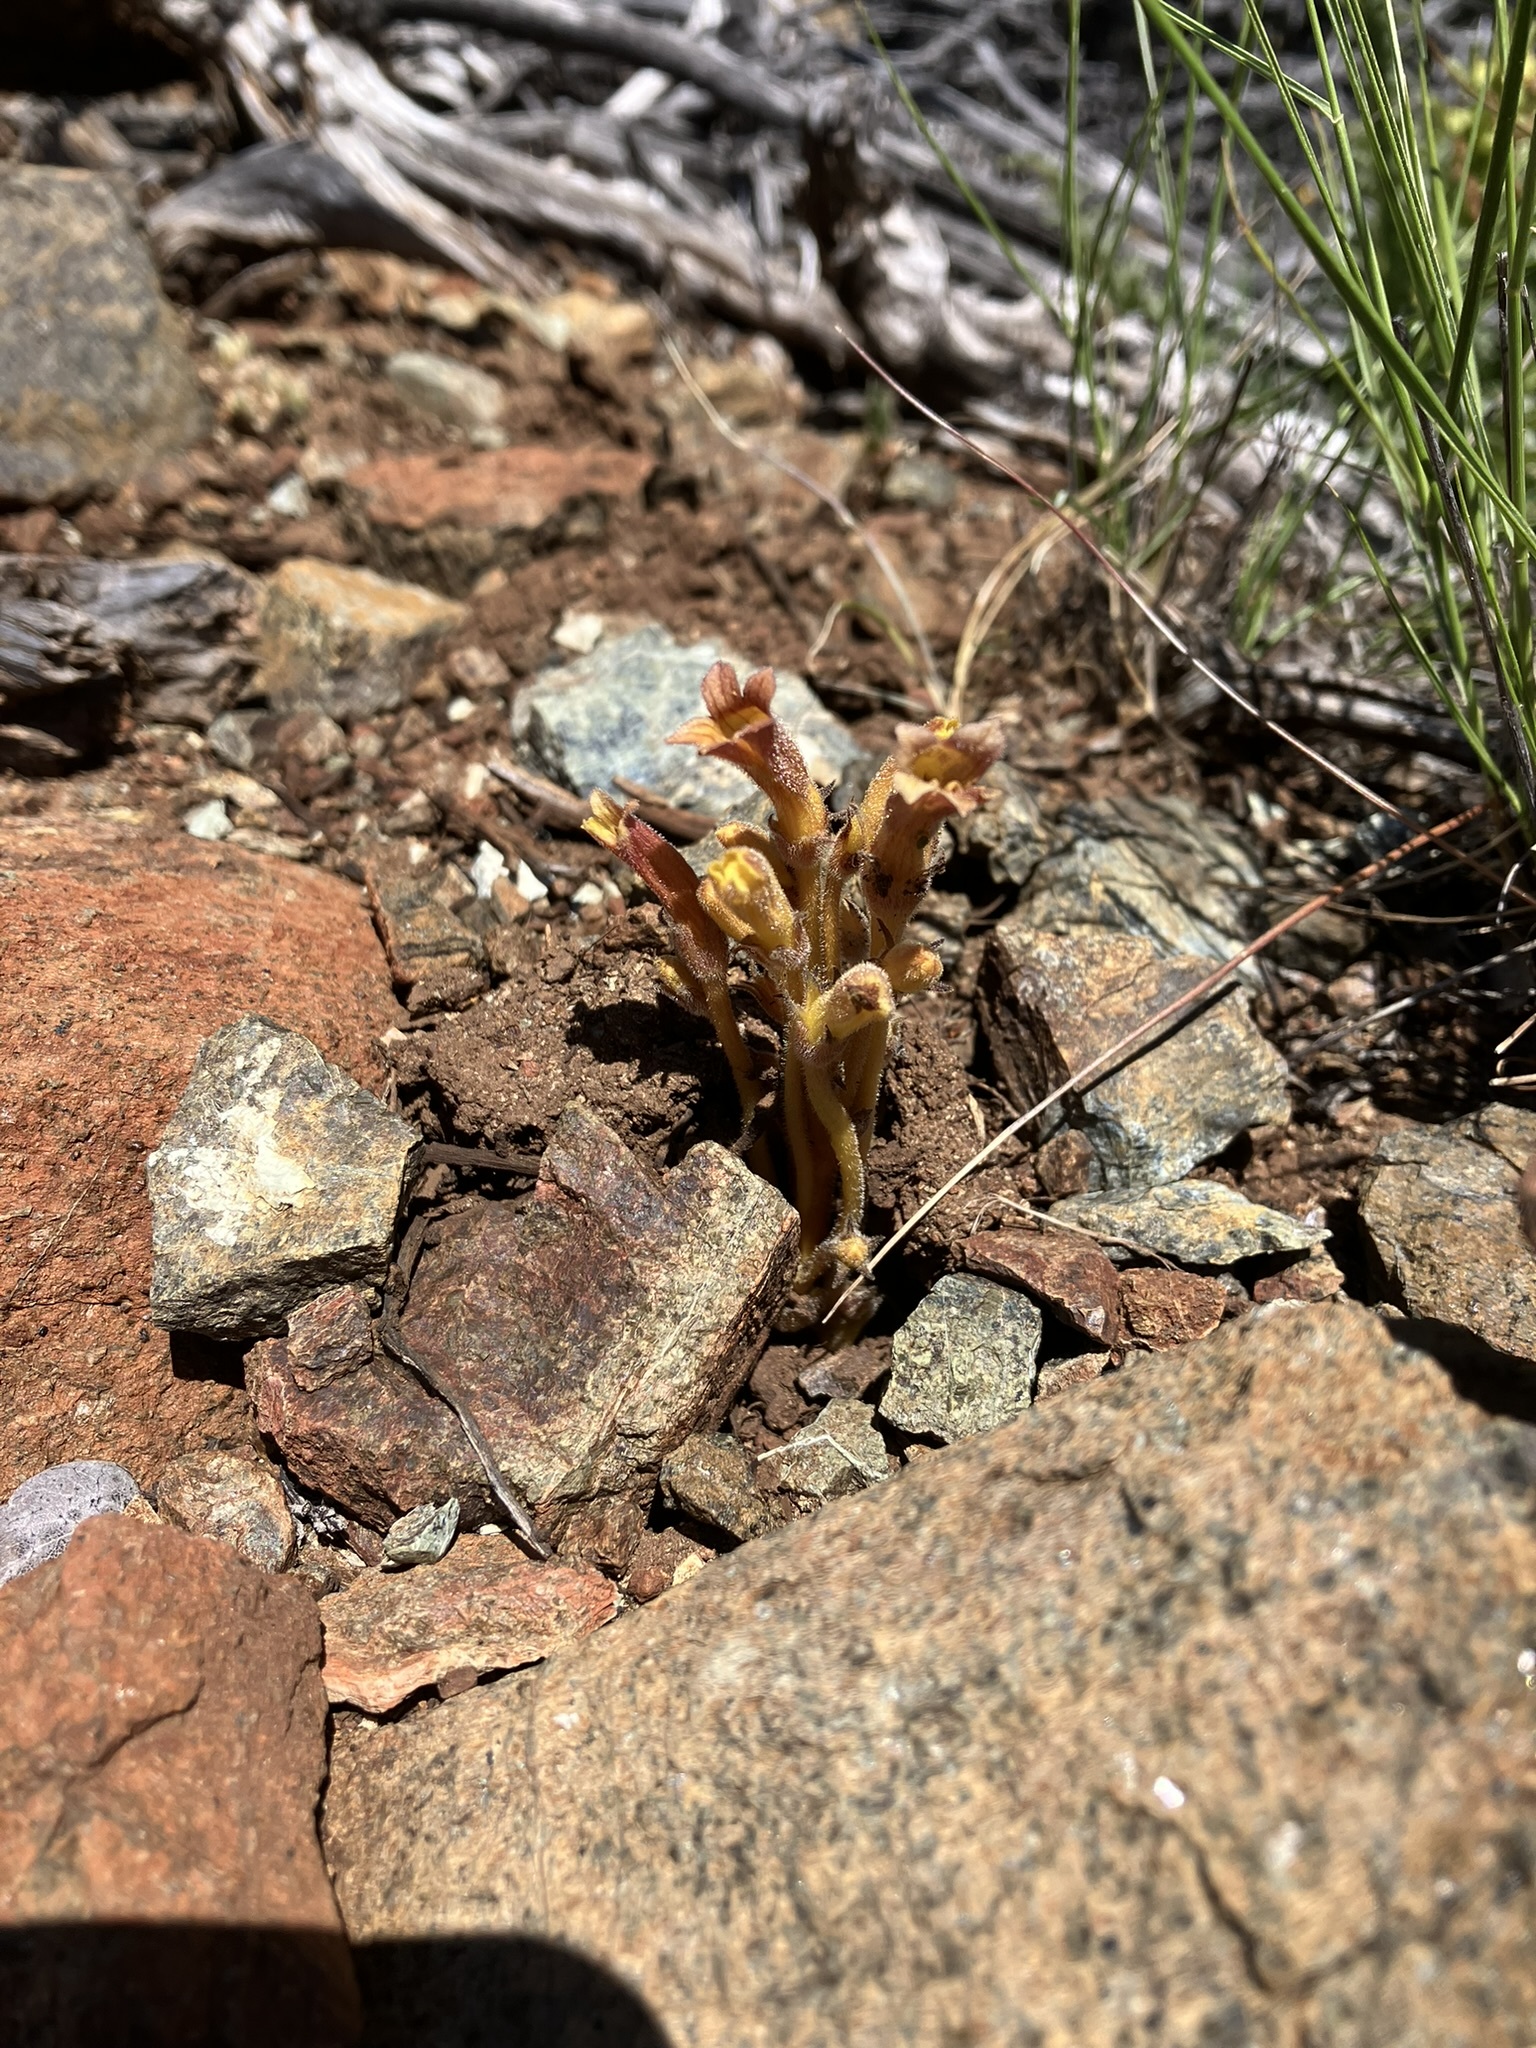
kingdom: Plantae
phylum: Tracheophyta
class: Magnoliopsida
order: Lamiales
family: Orobanchaceae
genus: Aphyllon
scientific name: Aphyllon franciscanum
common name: San francisco broomrape
